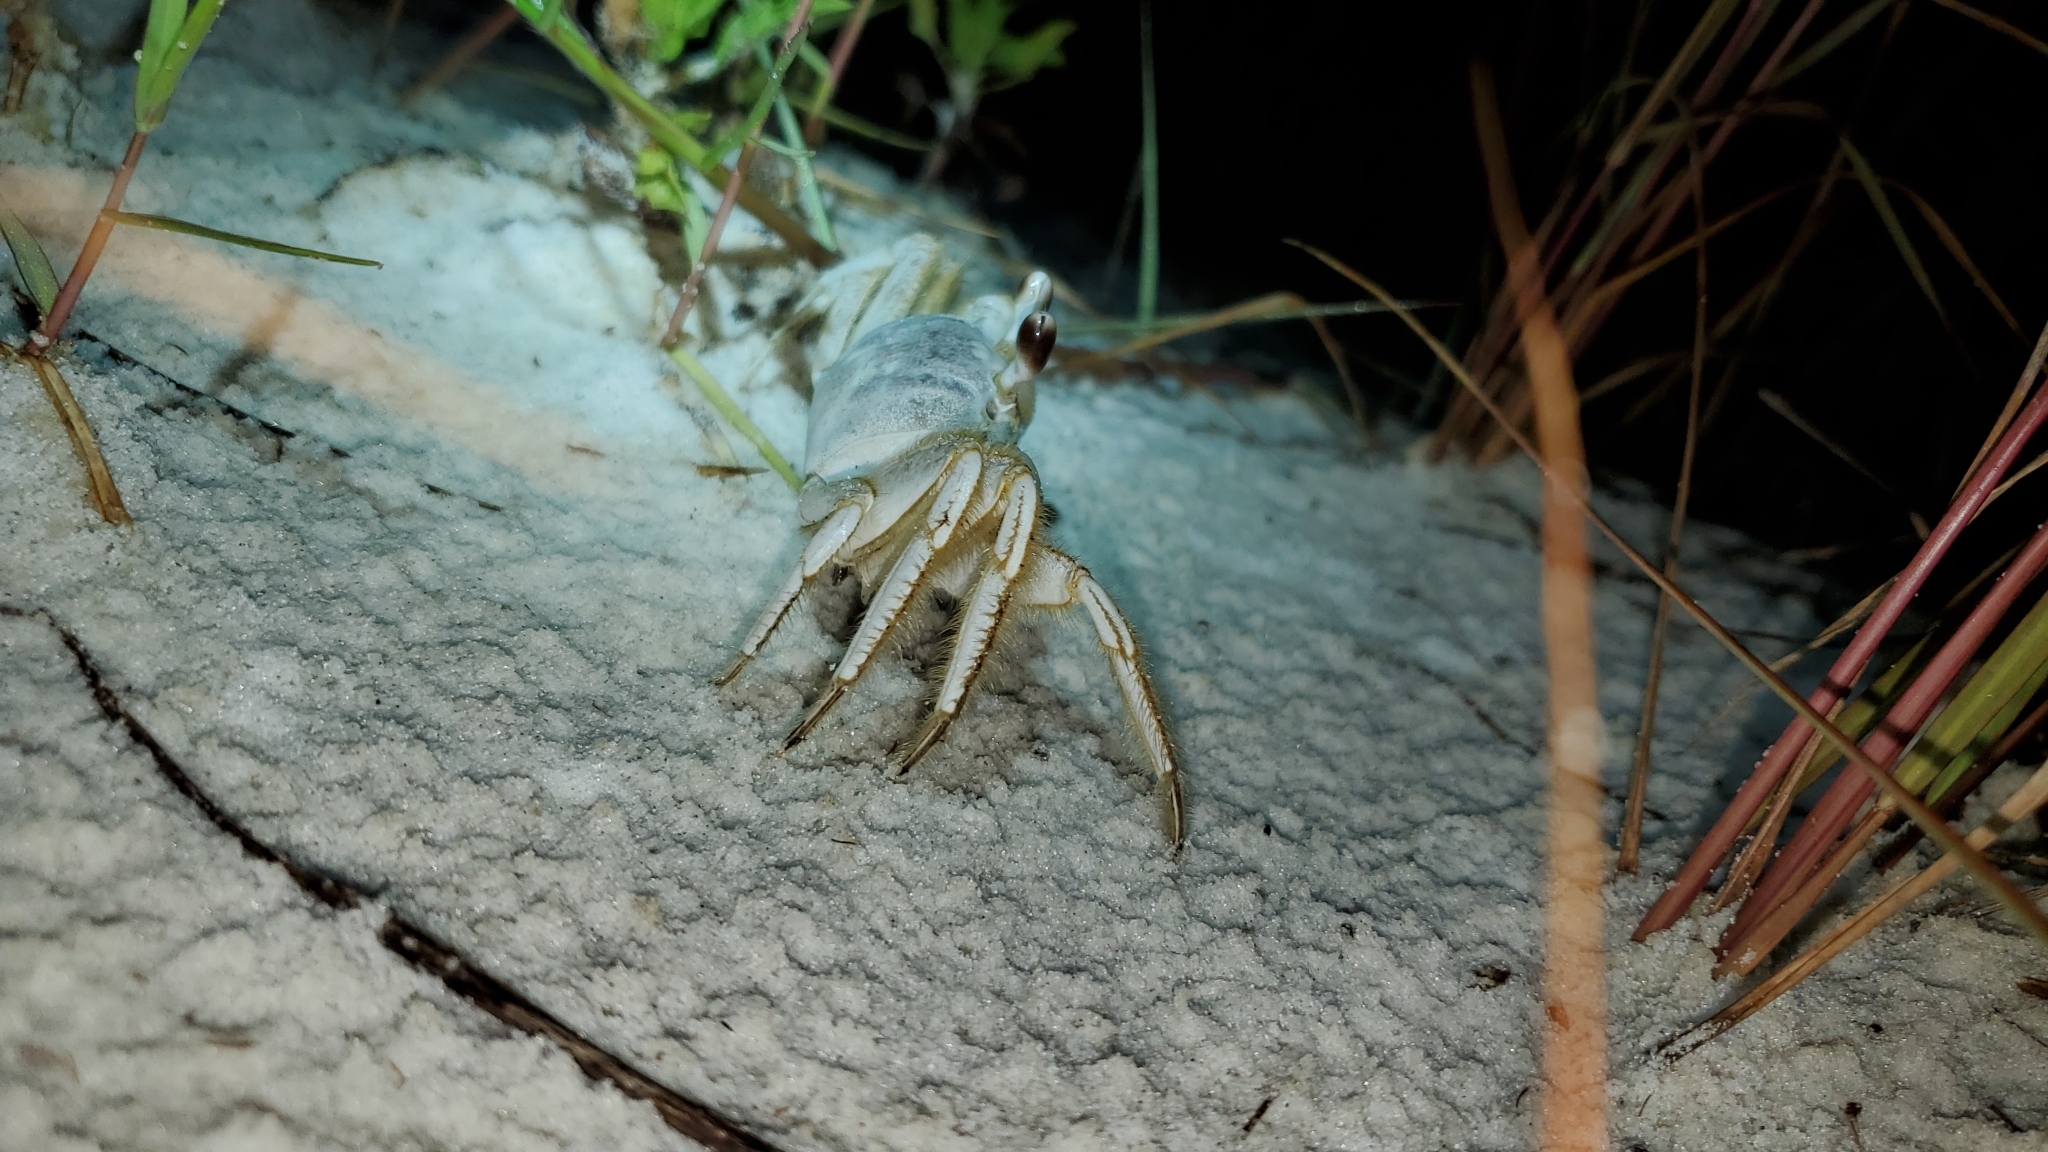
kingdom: Animalia
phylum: Arthropoda
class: Malacostraca
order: Decapoda
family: Ocypodidae
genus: Ocypode
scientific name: Ocypode quadrata
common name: Ghost crab
